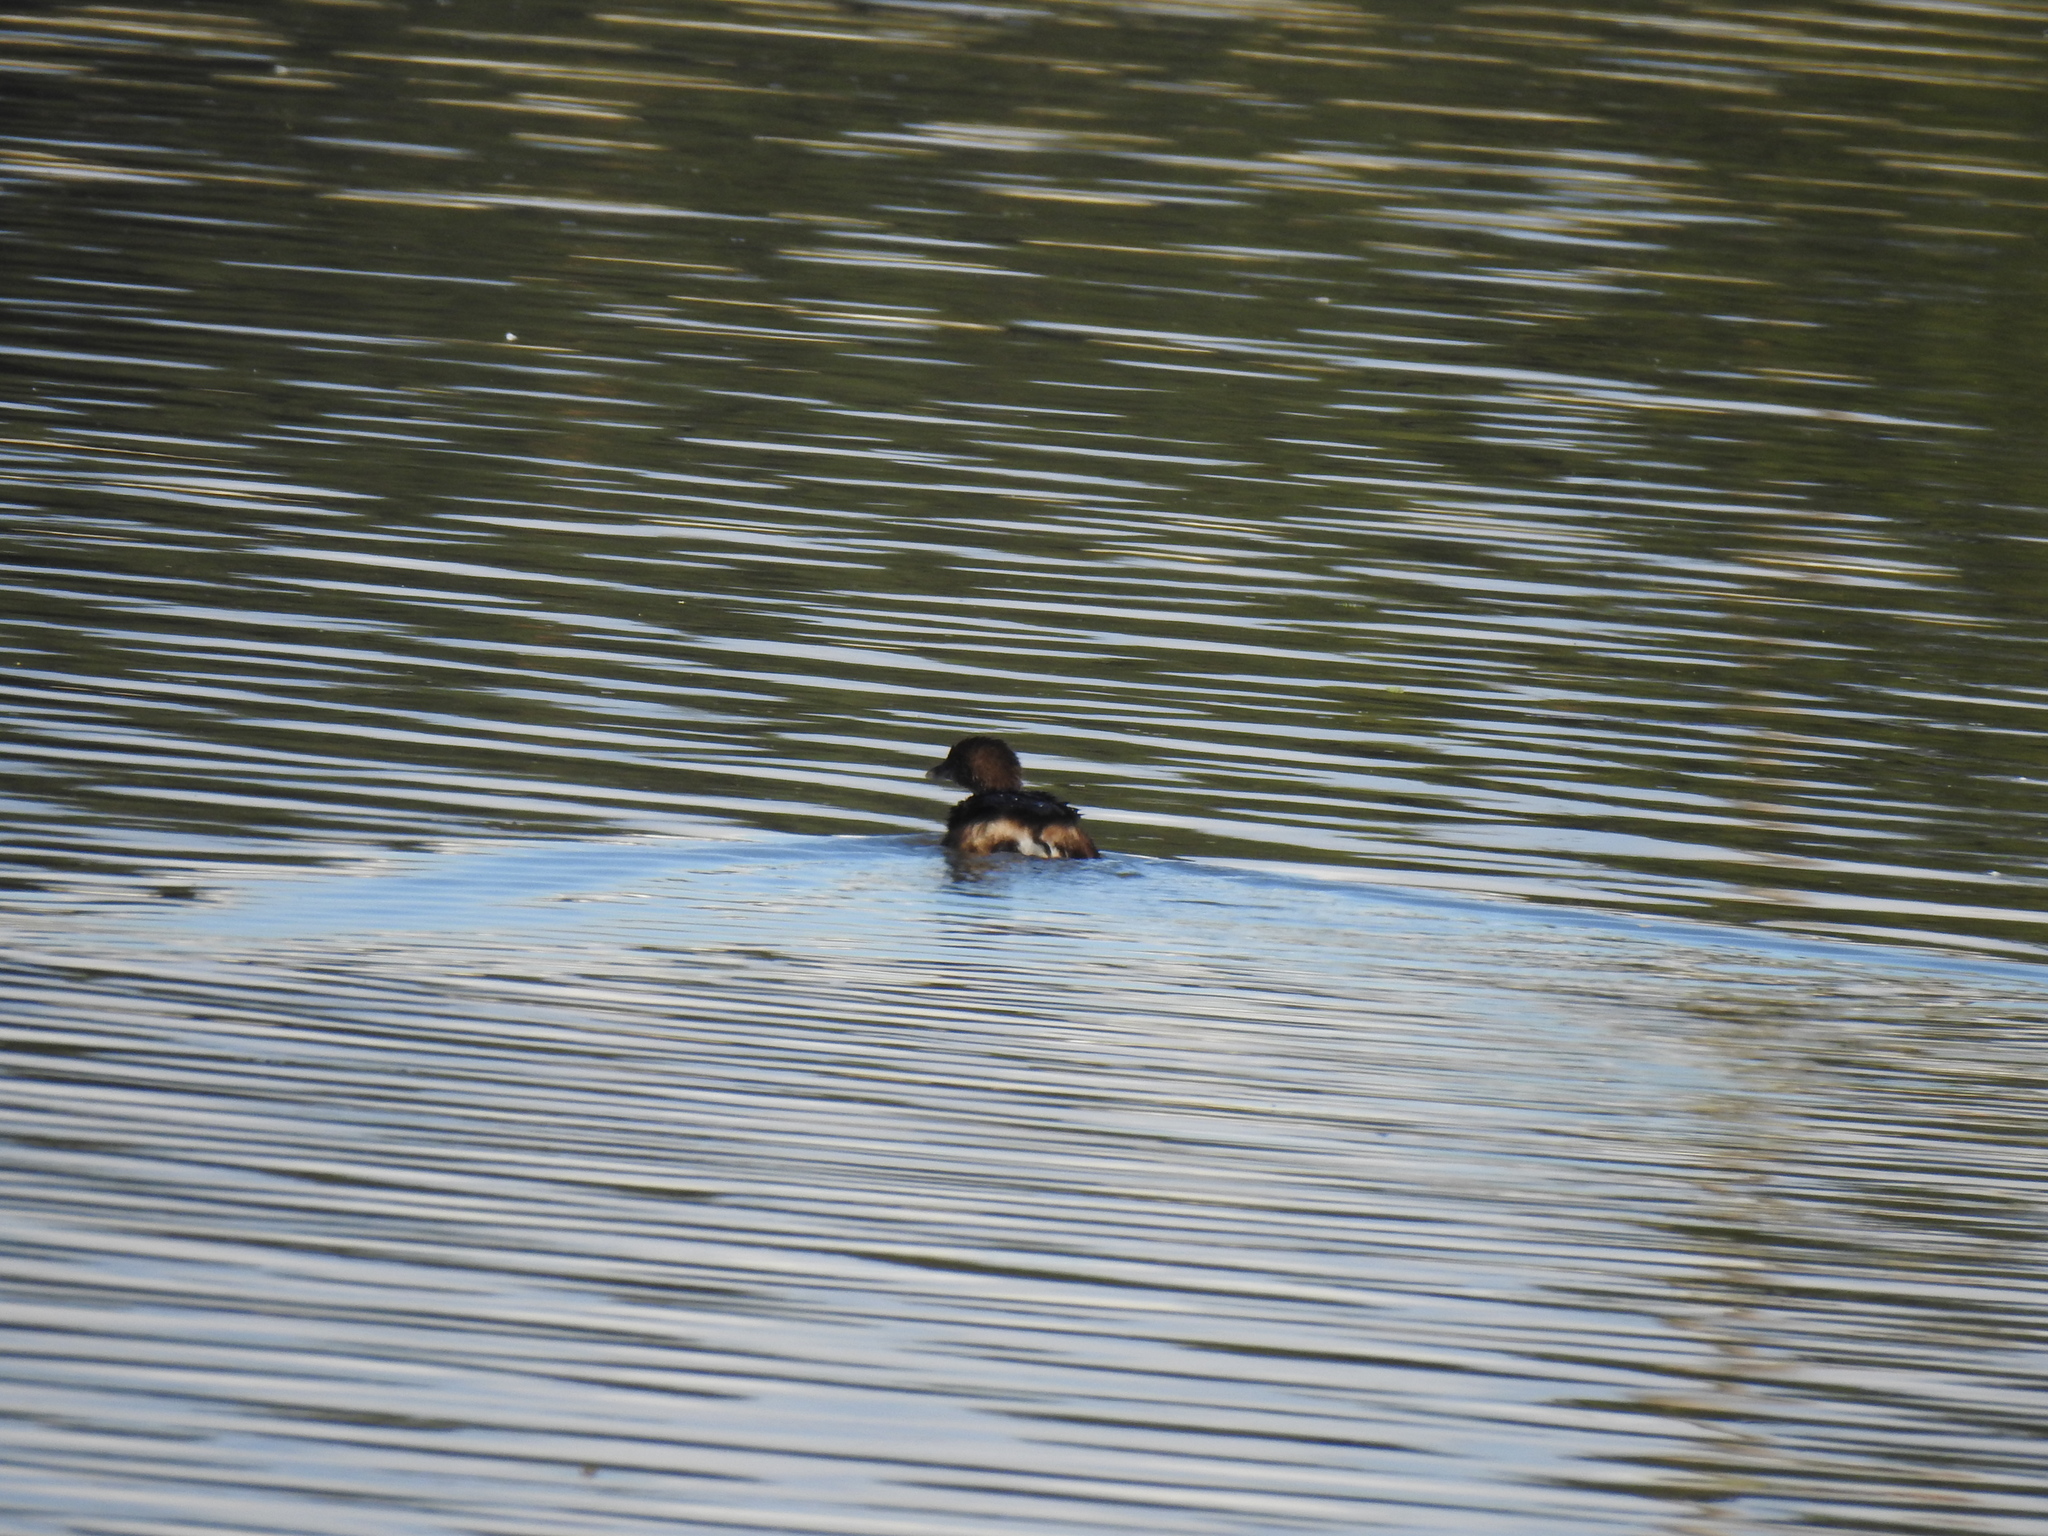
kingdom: Animalia
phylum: Chordata
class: Aves
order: Podicipediformes
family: Podicipedidae
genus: Podilymbus
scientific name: Podilymbus podiceps
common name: Pied-billed grebe
